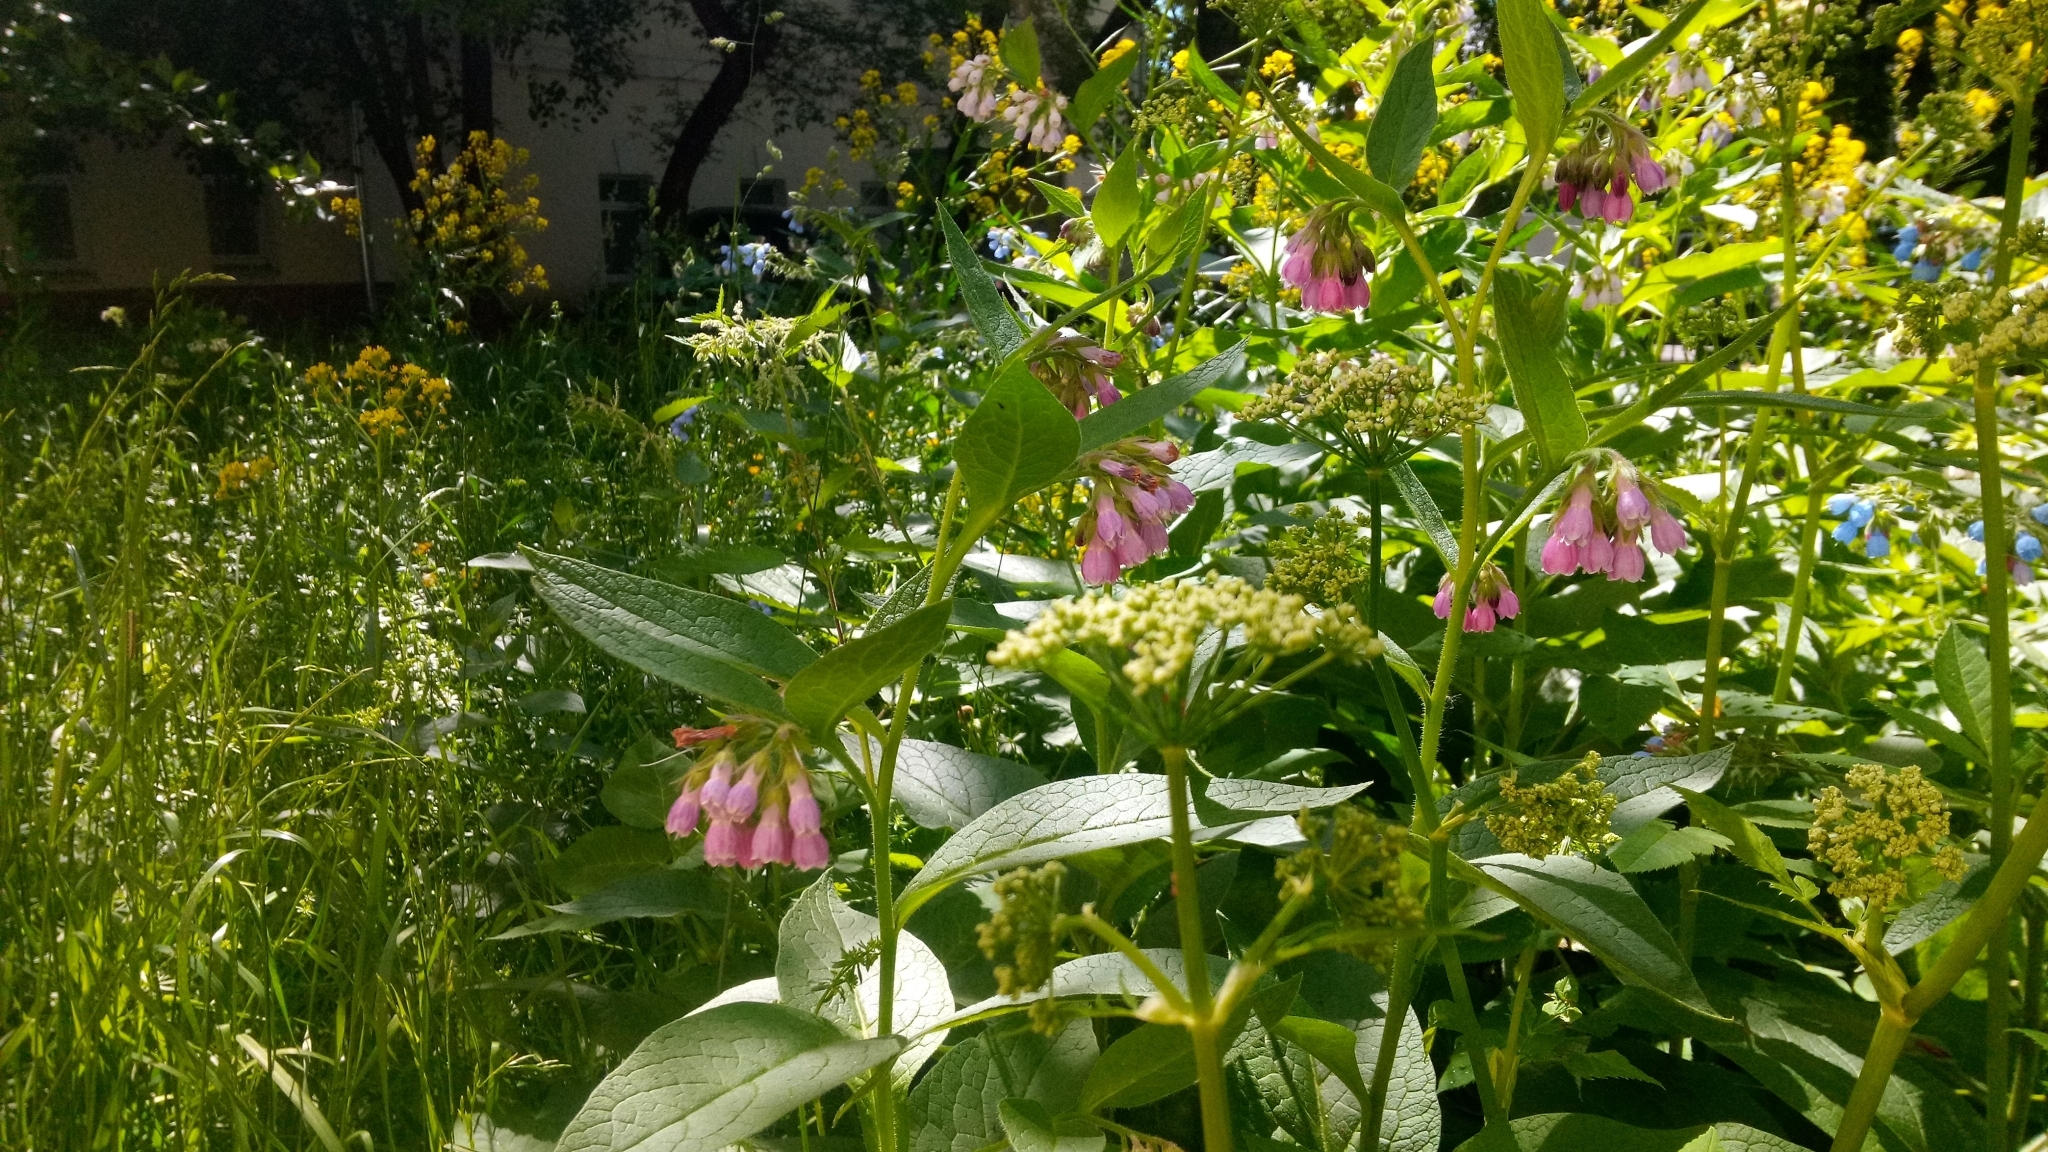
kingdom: Plantae
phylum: Tracheophyta
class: Magnoliopsida
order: Boraginales
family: Boraginaceae
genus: Symphytum
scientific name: Symphytum uplandicum
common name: Russian comfrey
